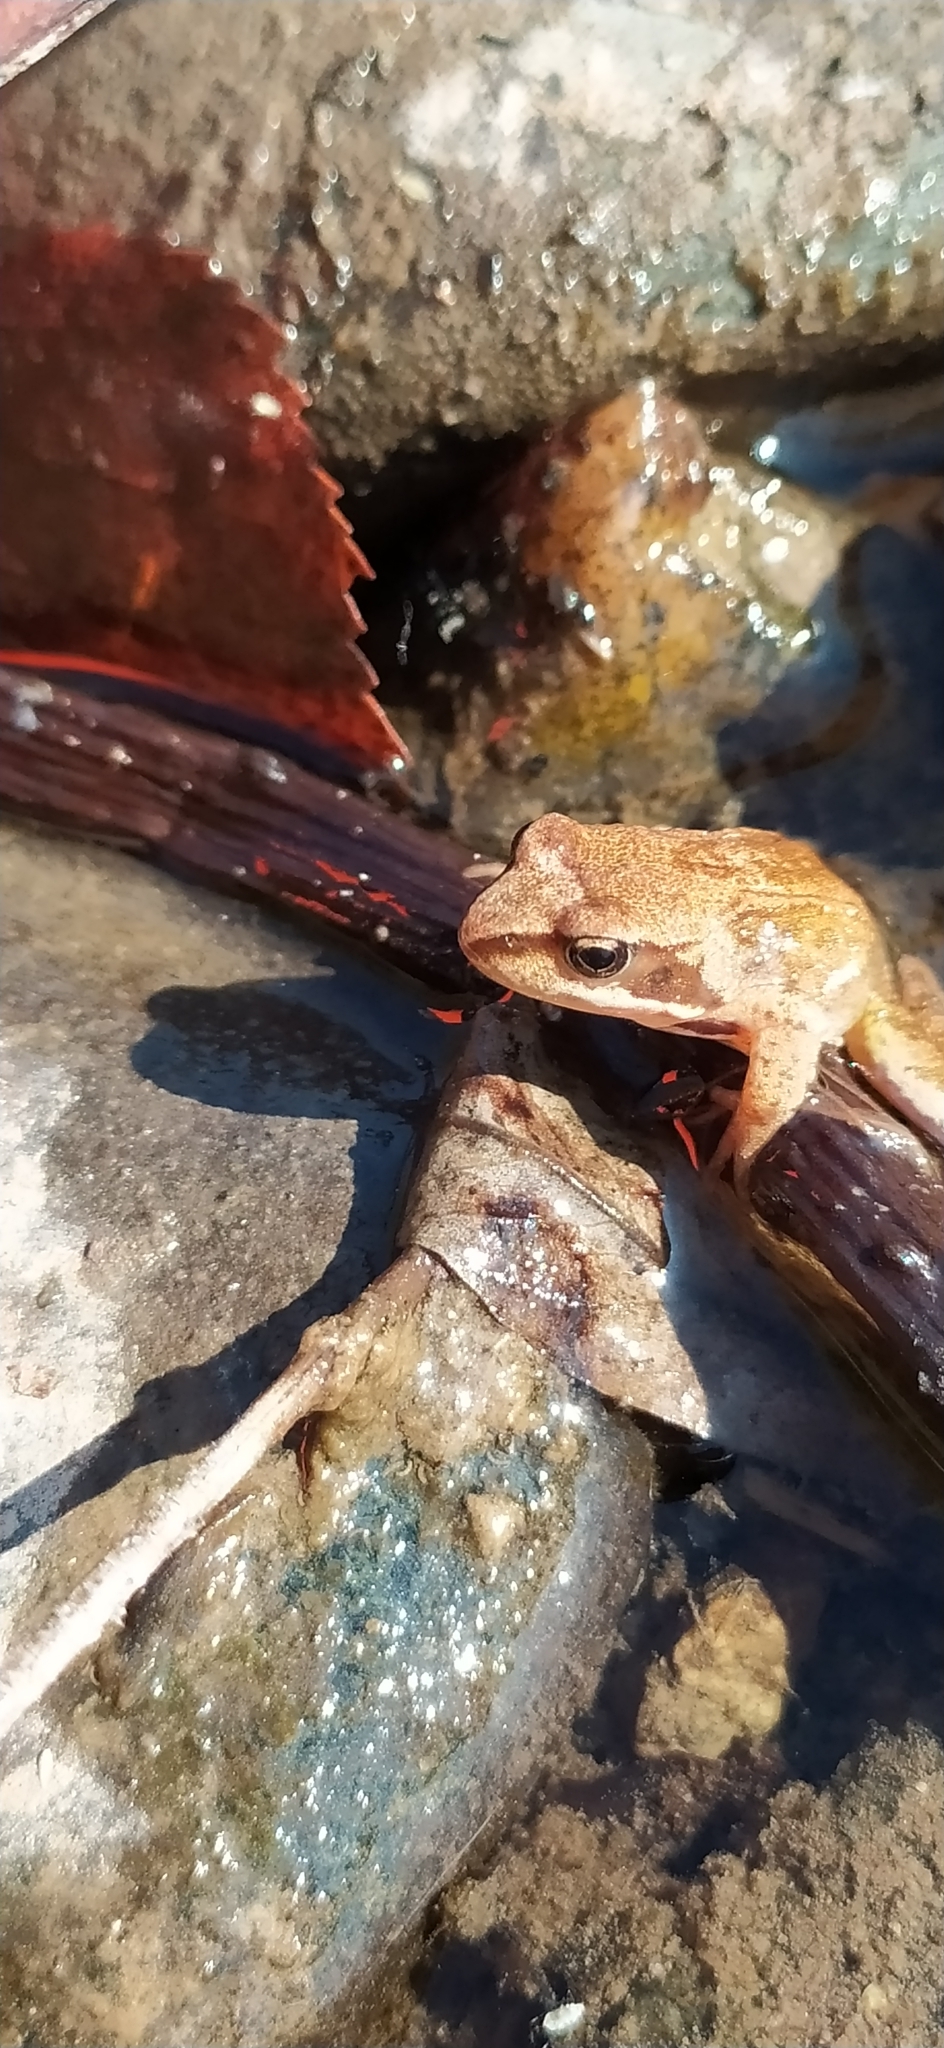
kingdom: Animalia
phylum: Chordata
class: Amphibia
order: Anura
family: Ranidae
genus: Rana
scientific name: Rana temporaria
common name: Common frog
